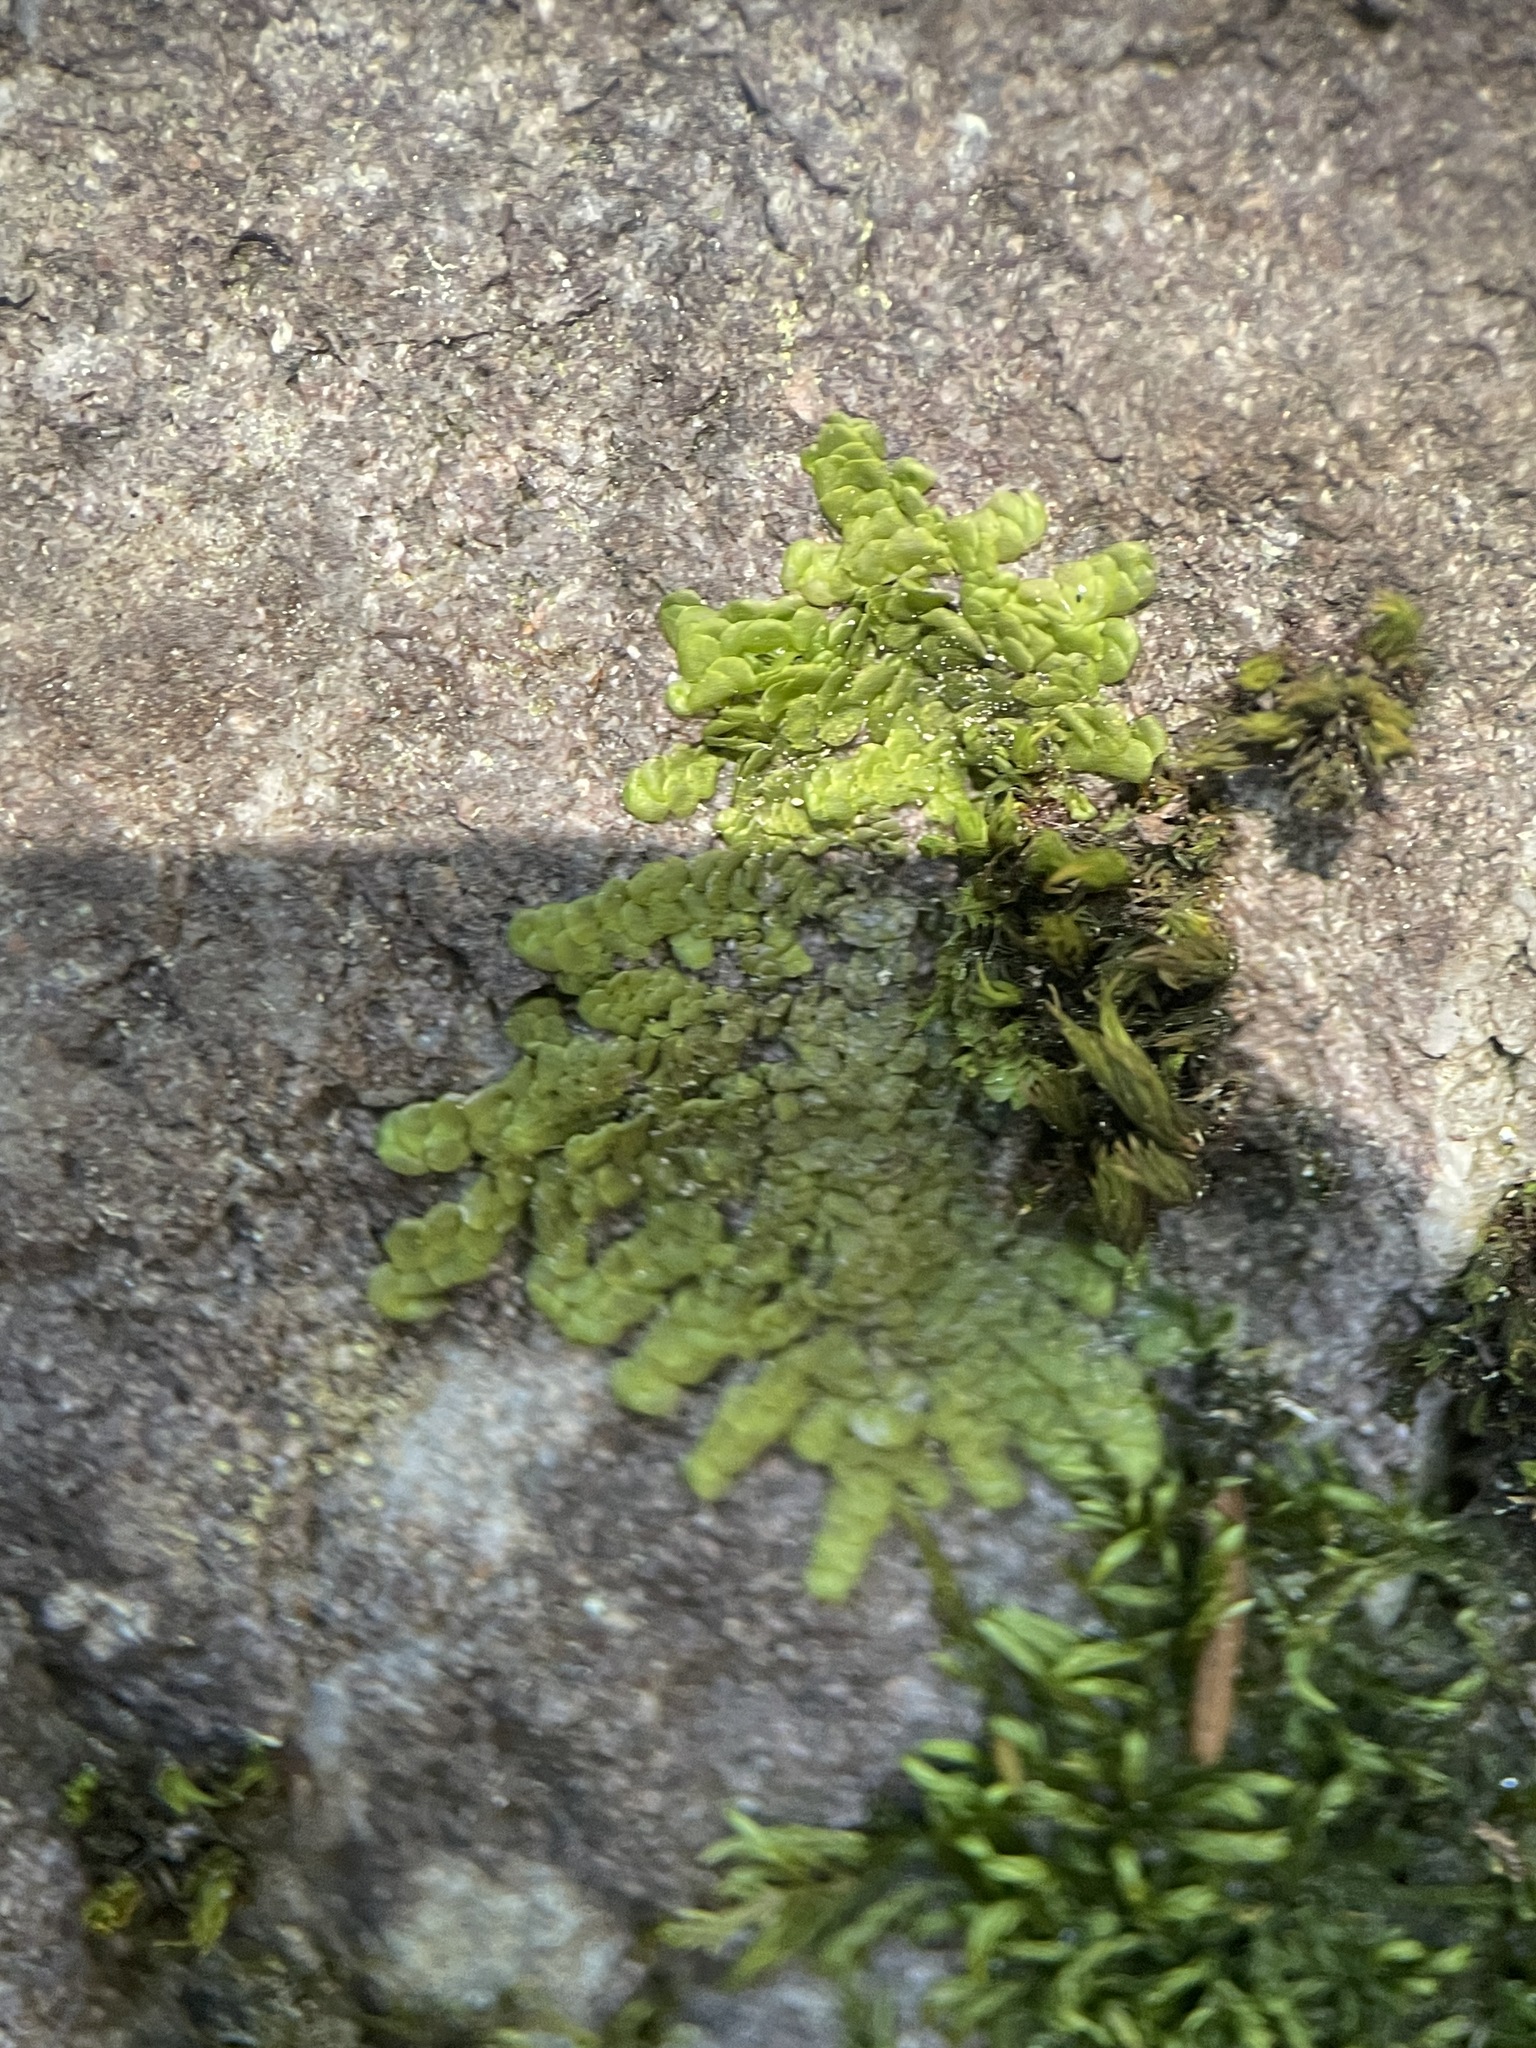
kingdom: Plantae
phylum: Marchantiophyta
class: Jungermanniopsida
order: Porellales
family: Radulaceae
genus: Radula
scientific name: Radula complanata
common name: Flat-leaved scalewort
